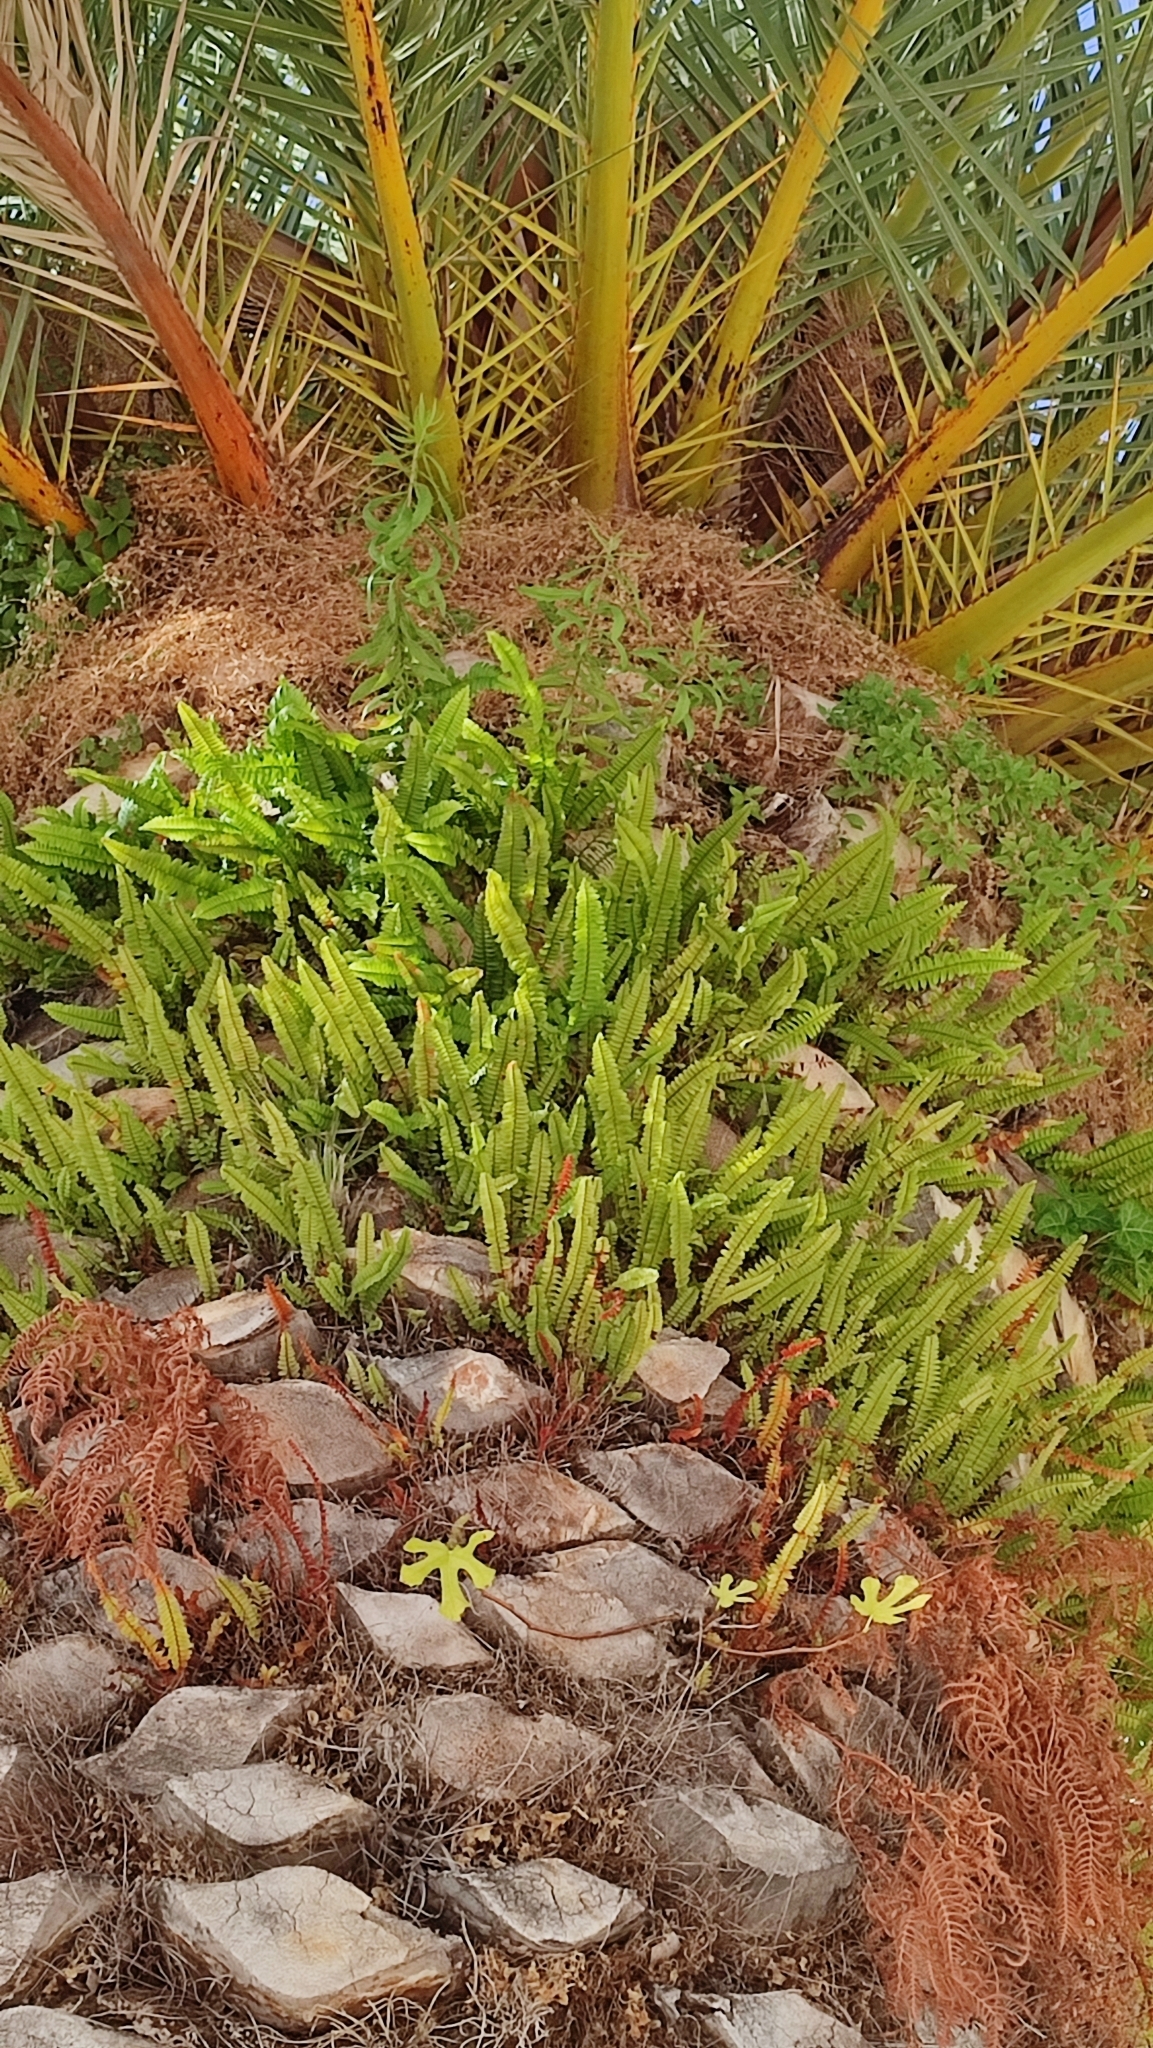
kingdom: Plantae
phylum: Tracheophyta
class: Polypodiopsida
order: Polypodiales
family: Polypodiaceae
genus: Polypodium
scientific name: Polypodium cambricum
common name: Southern polypody
